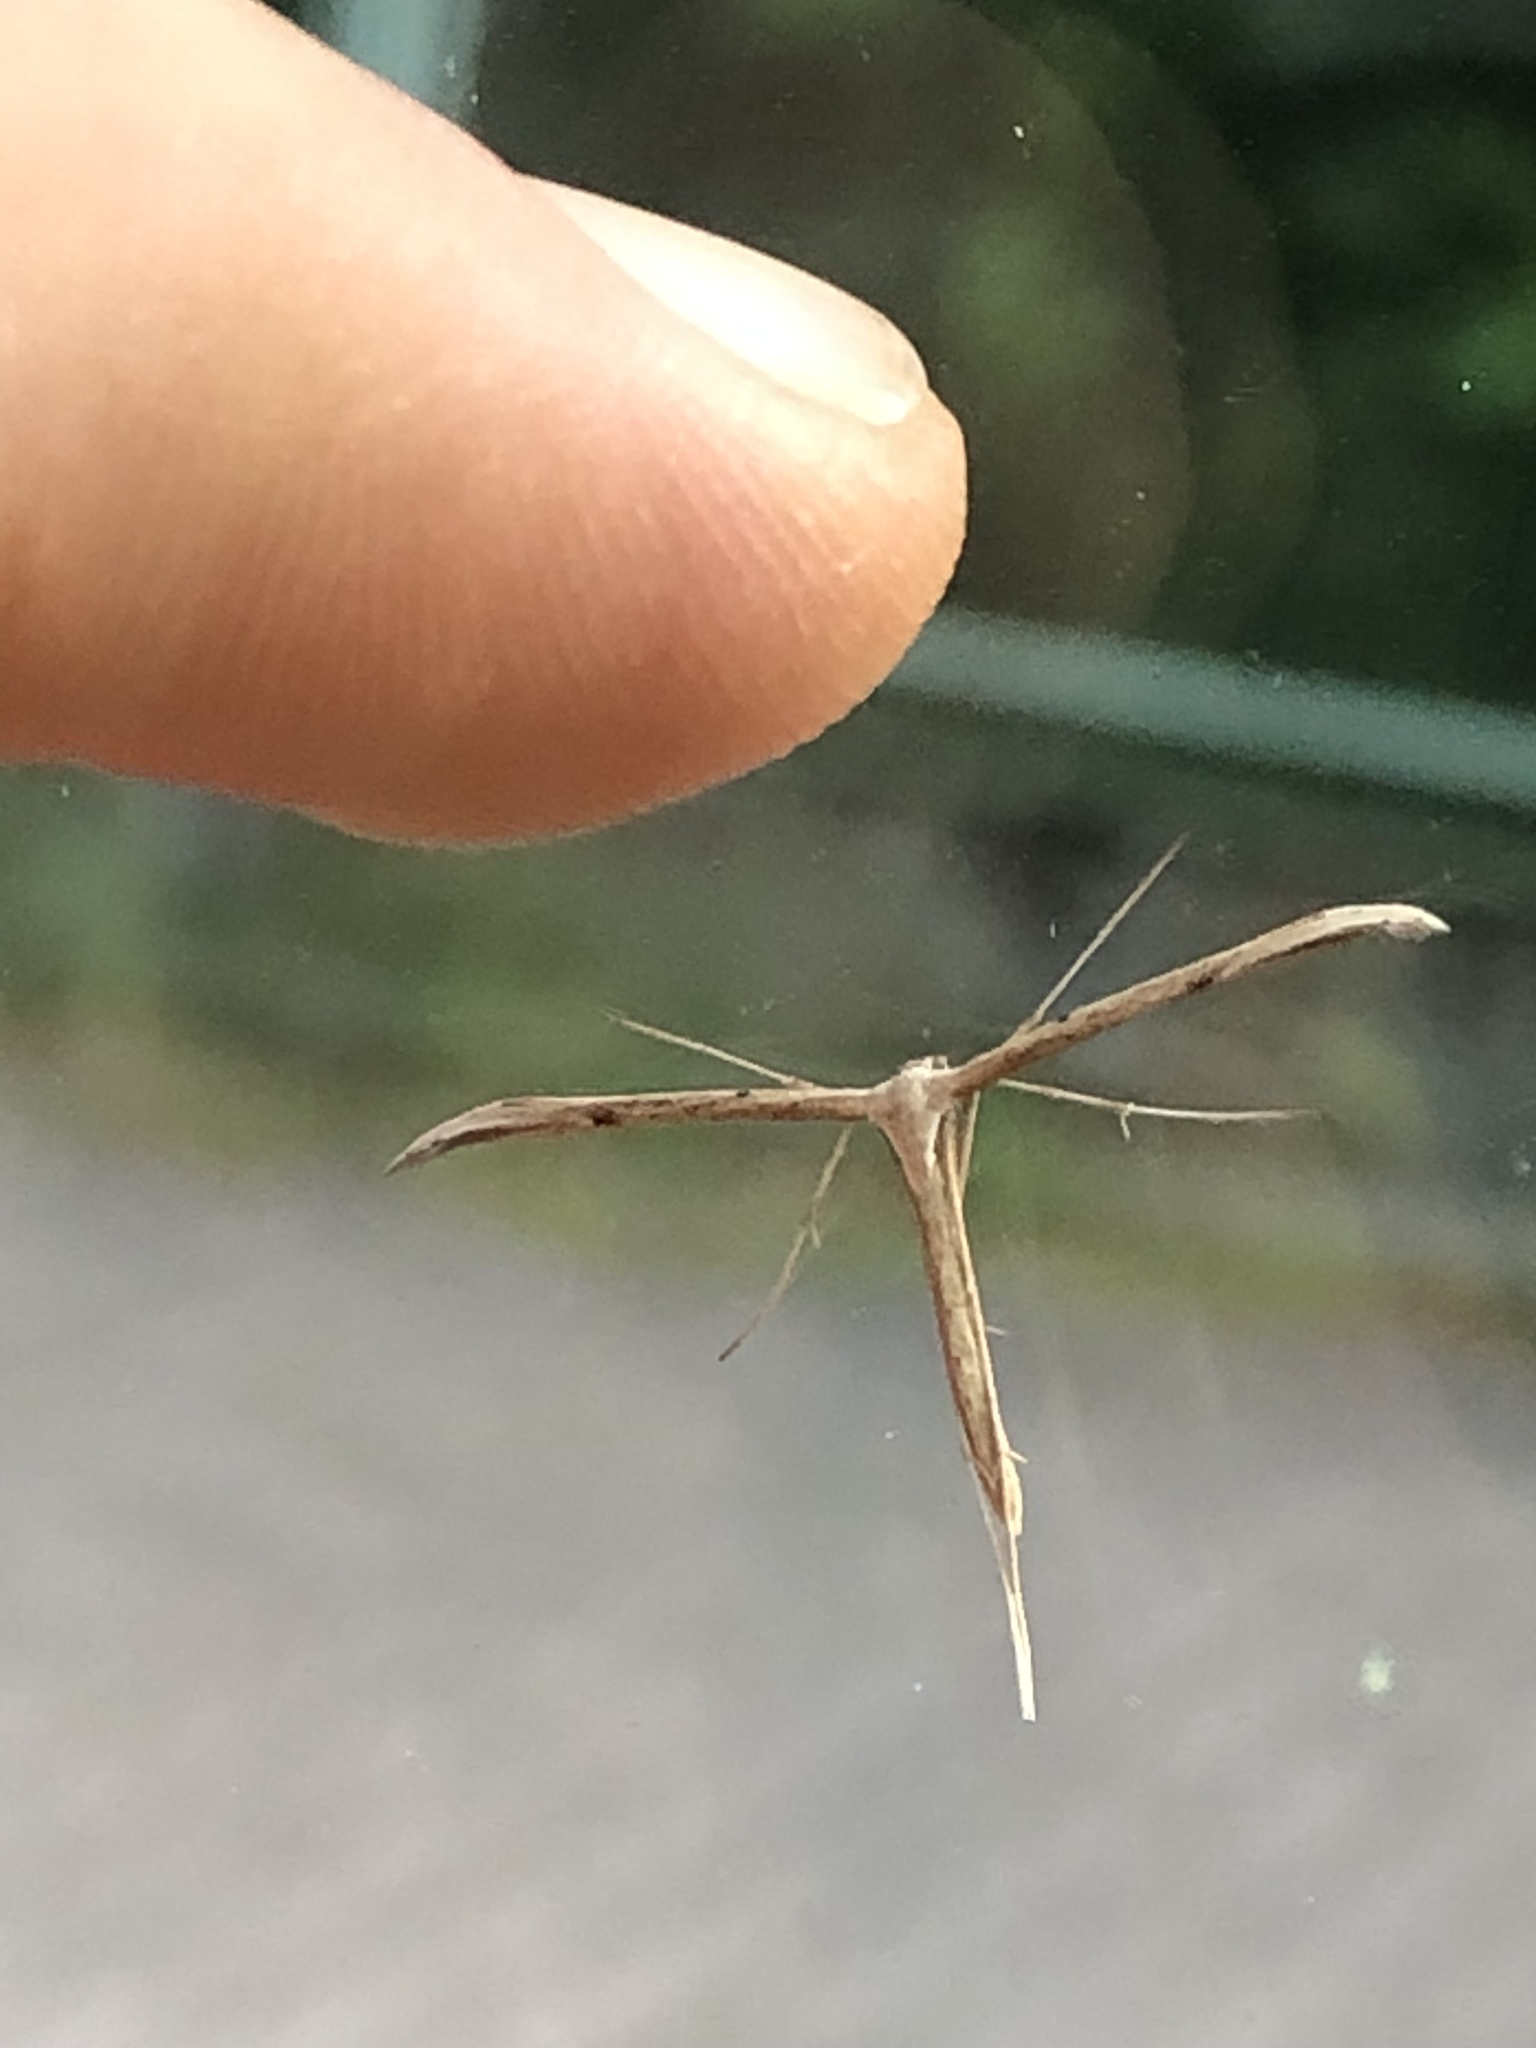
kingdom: Animalia
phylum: Arthropoda
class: Insecta
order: Lepidoptera
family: Pterophoridae
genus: Emmelina
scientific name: Emmelina monodactyla
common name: Common plume
